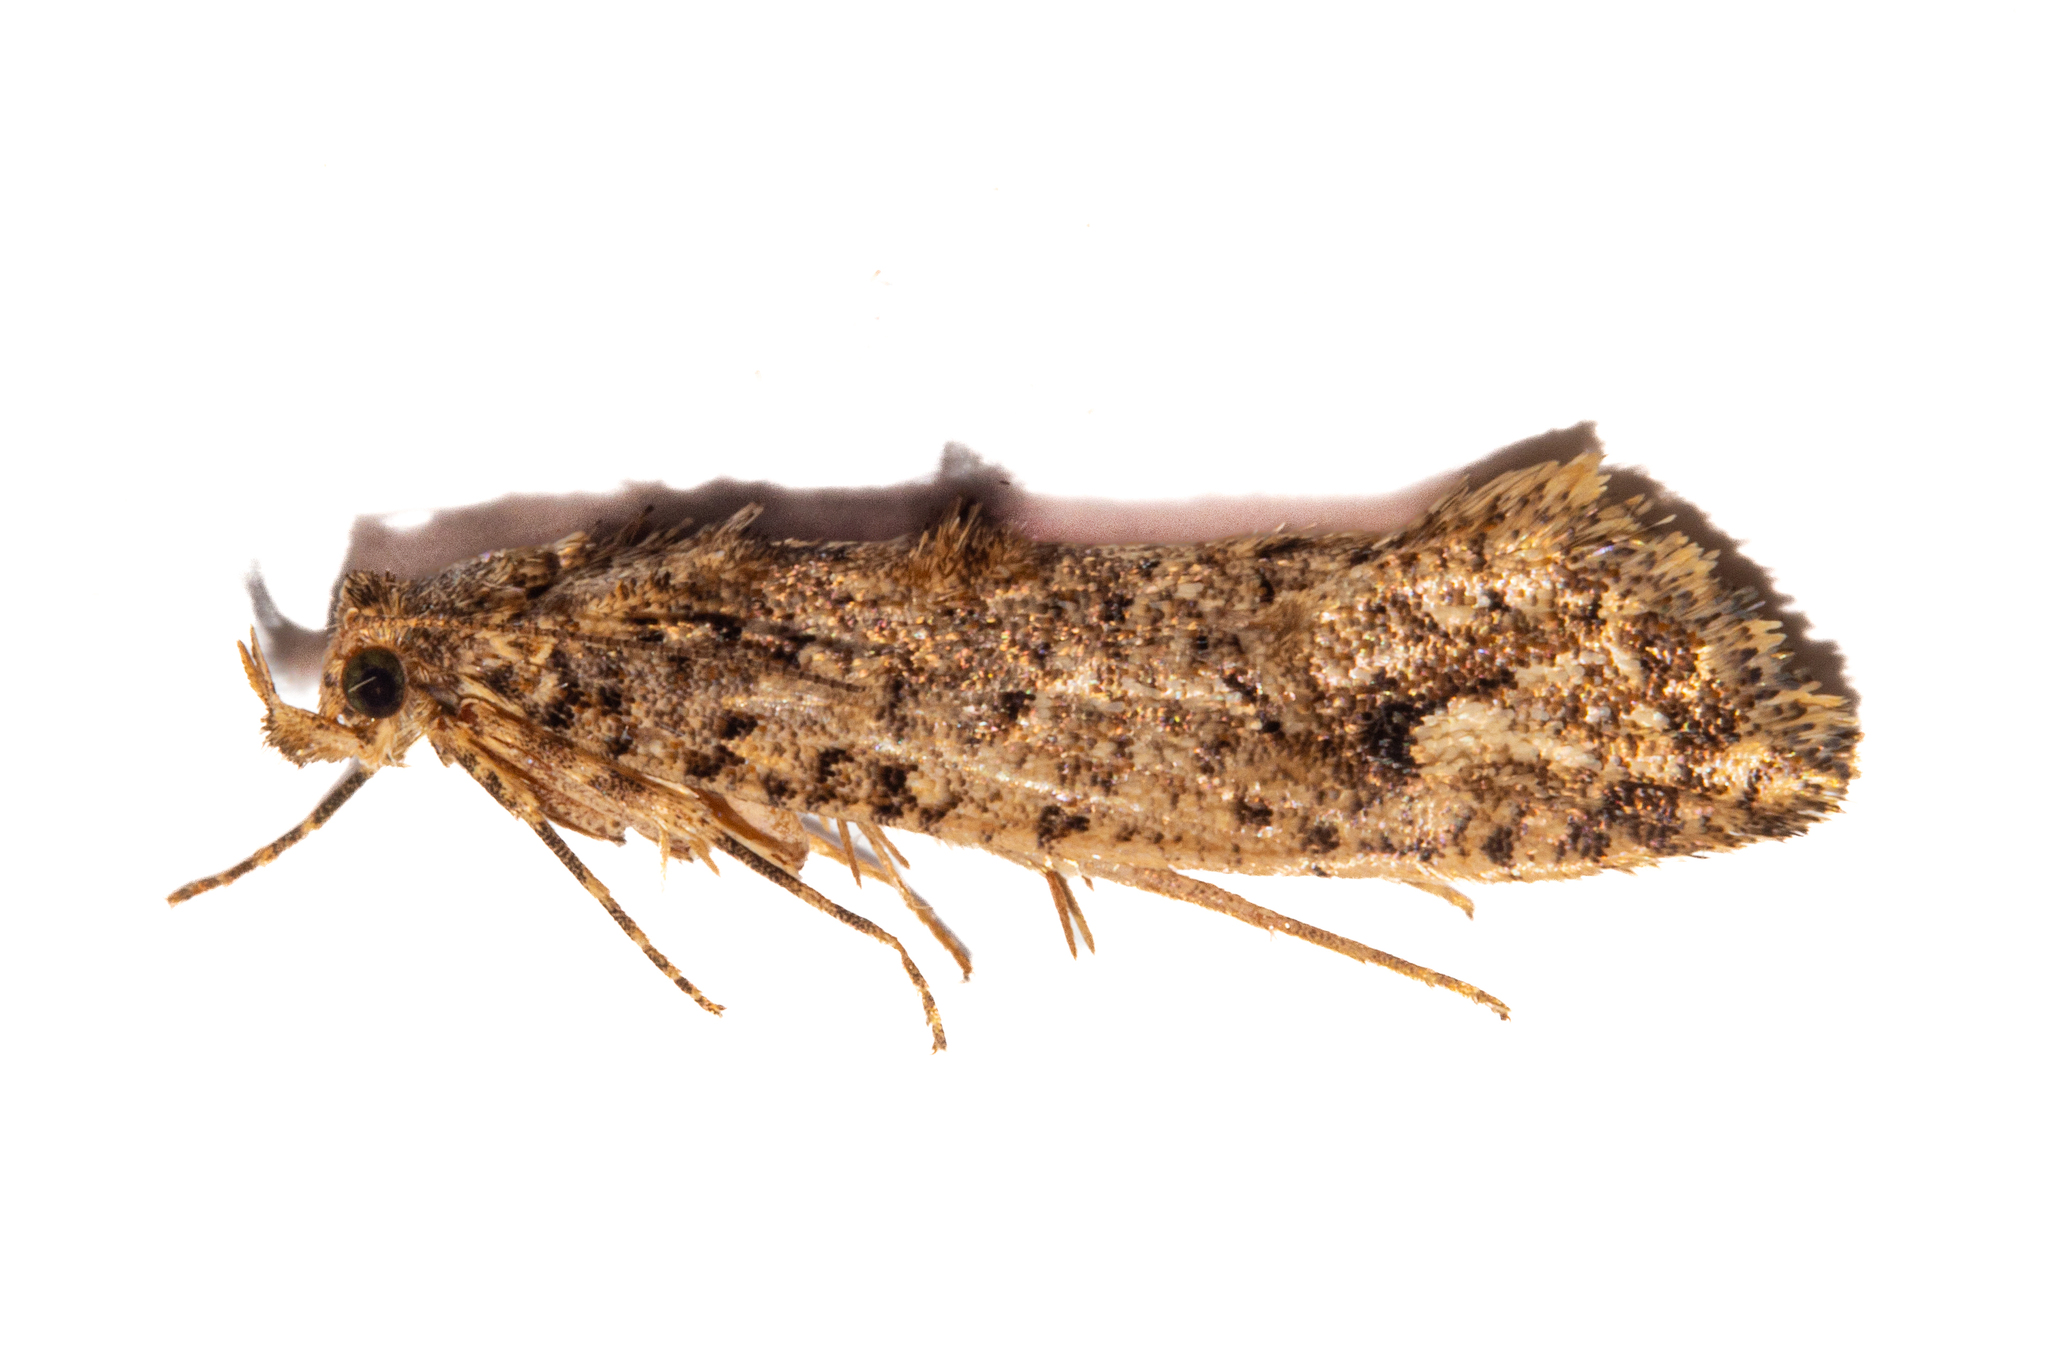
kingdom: Animalia
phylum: Arthropoda
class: Insecta
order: Lepidoptera
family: Tineidae
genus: Lysiphragma
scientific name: Lysiphragma epixyla
